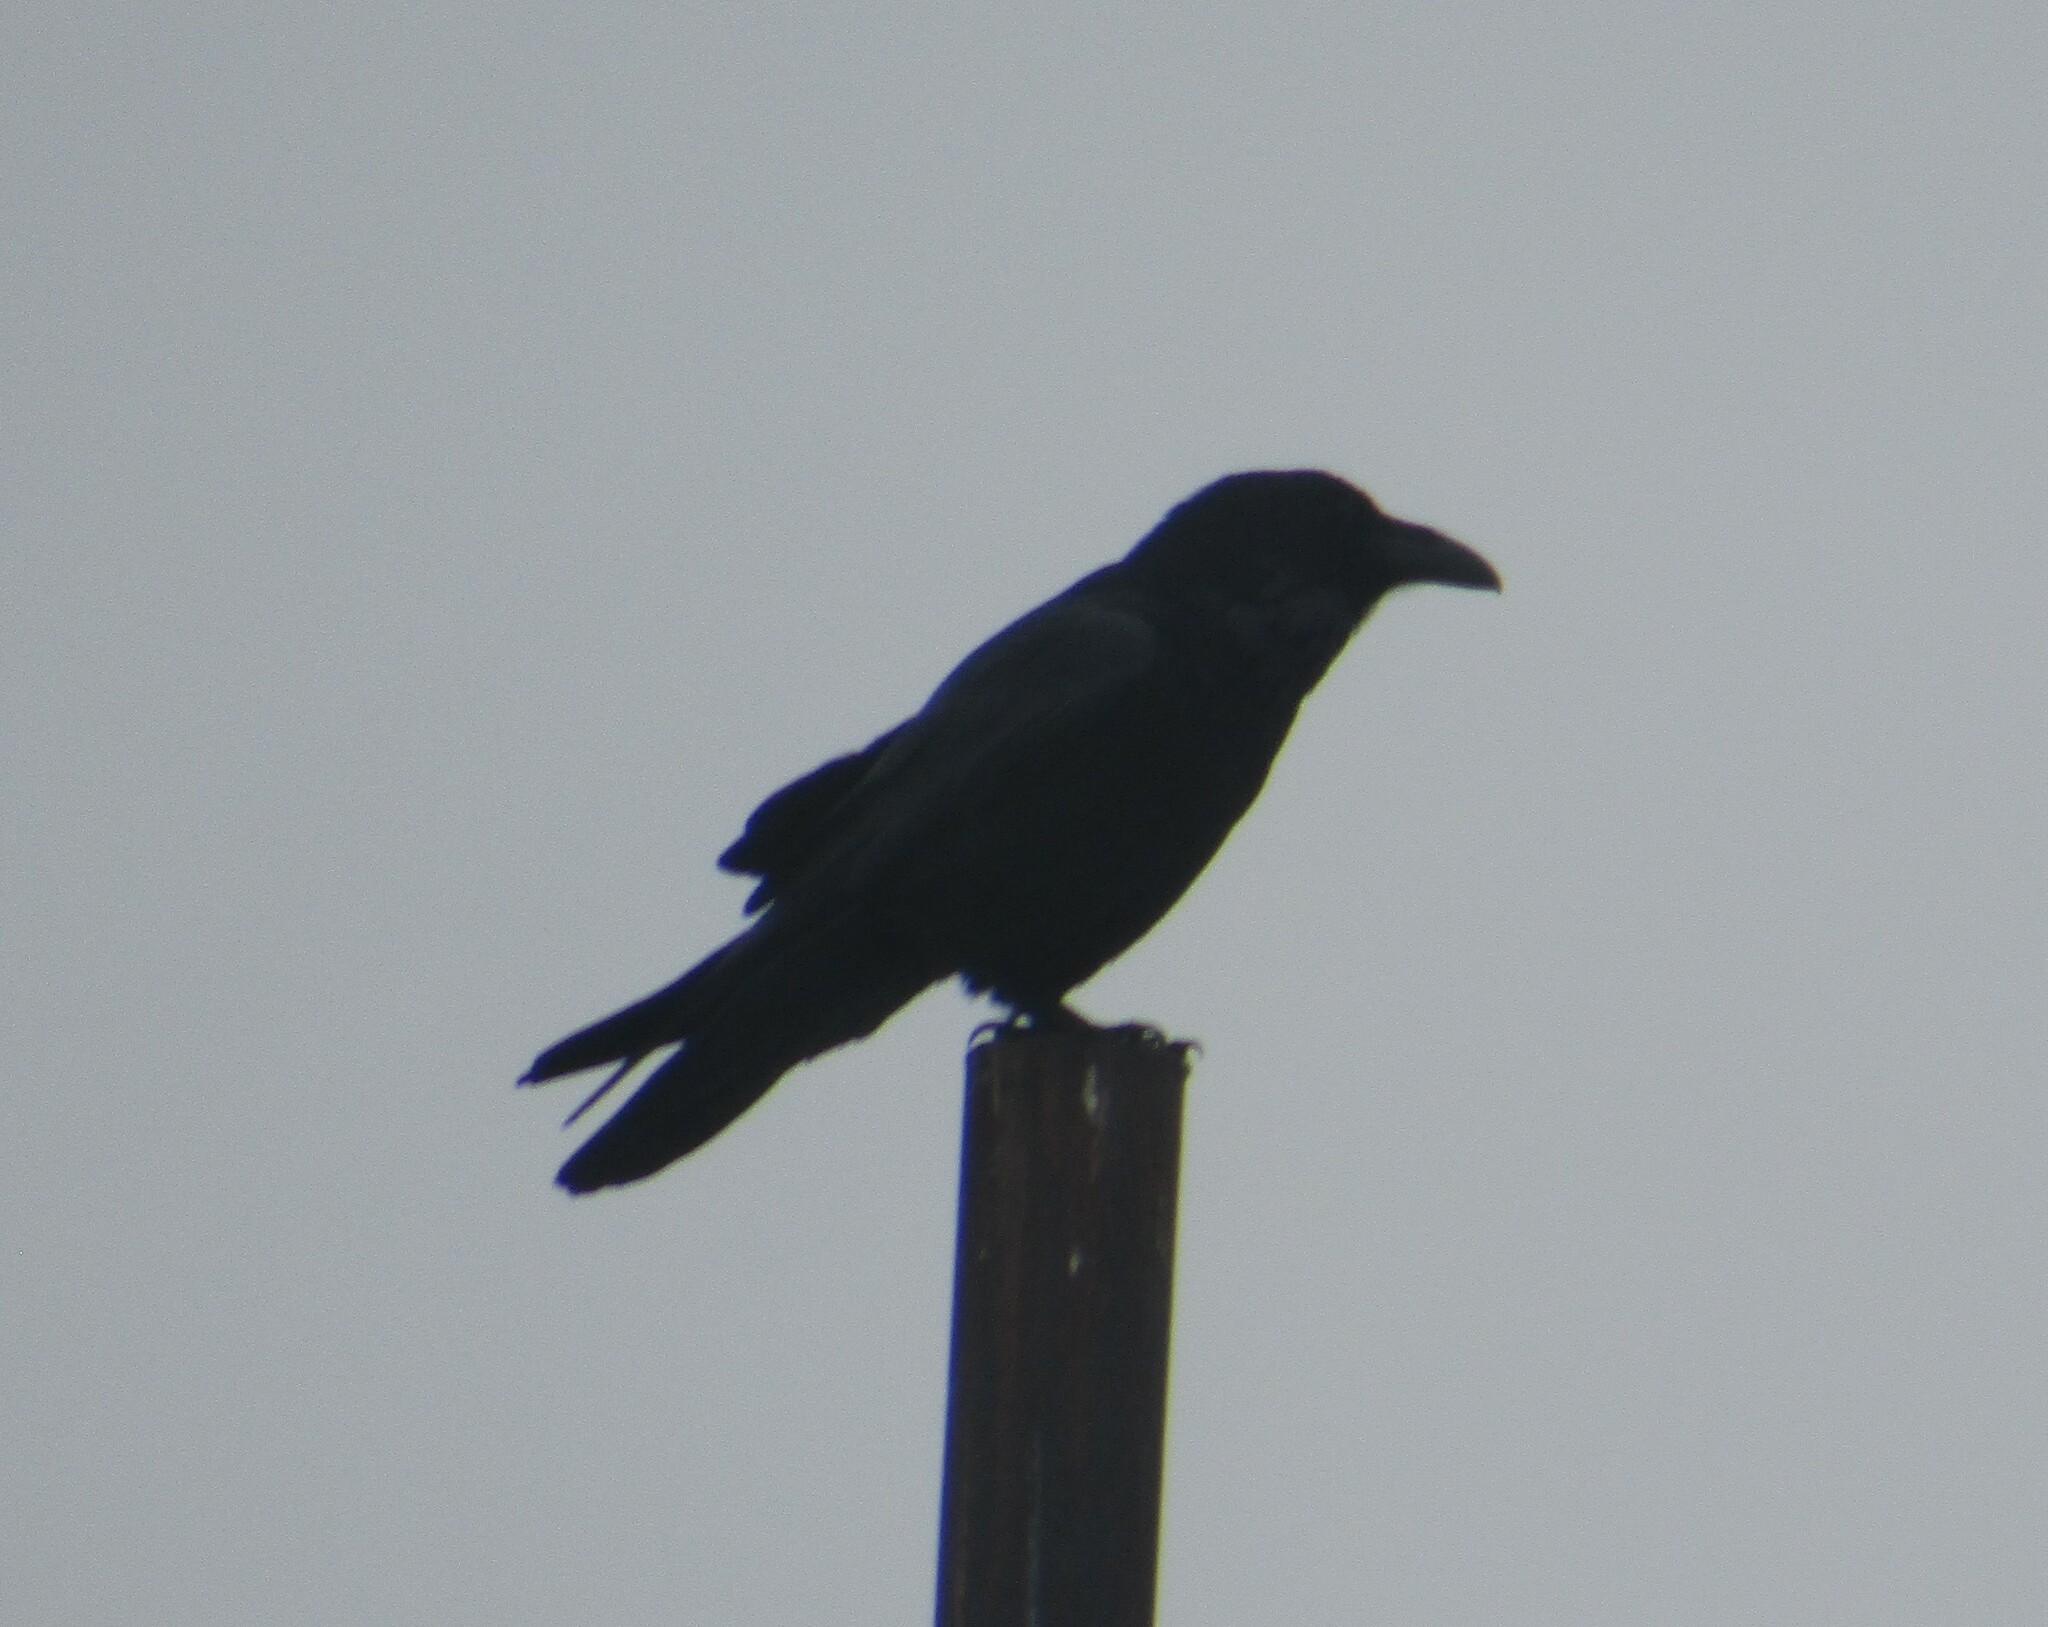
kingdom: Animalia
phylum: Chordata
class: Aves
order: Passeriformes
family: Corvidae
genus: Corvus
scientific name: Corvus corax
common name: Common raven
